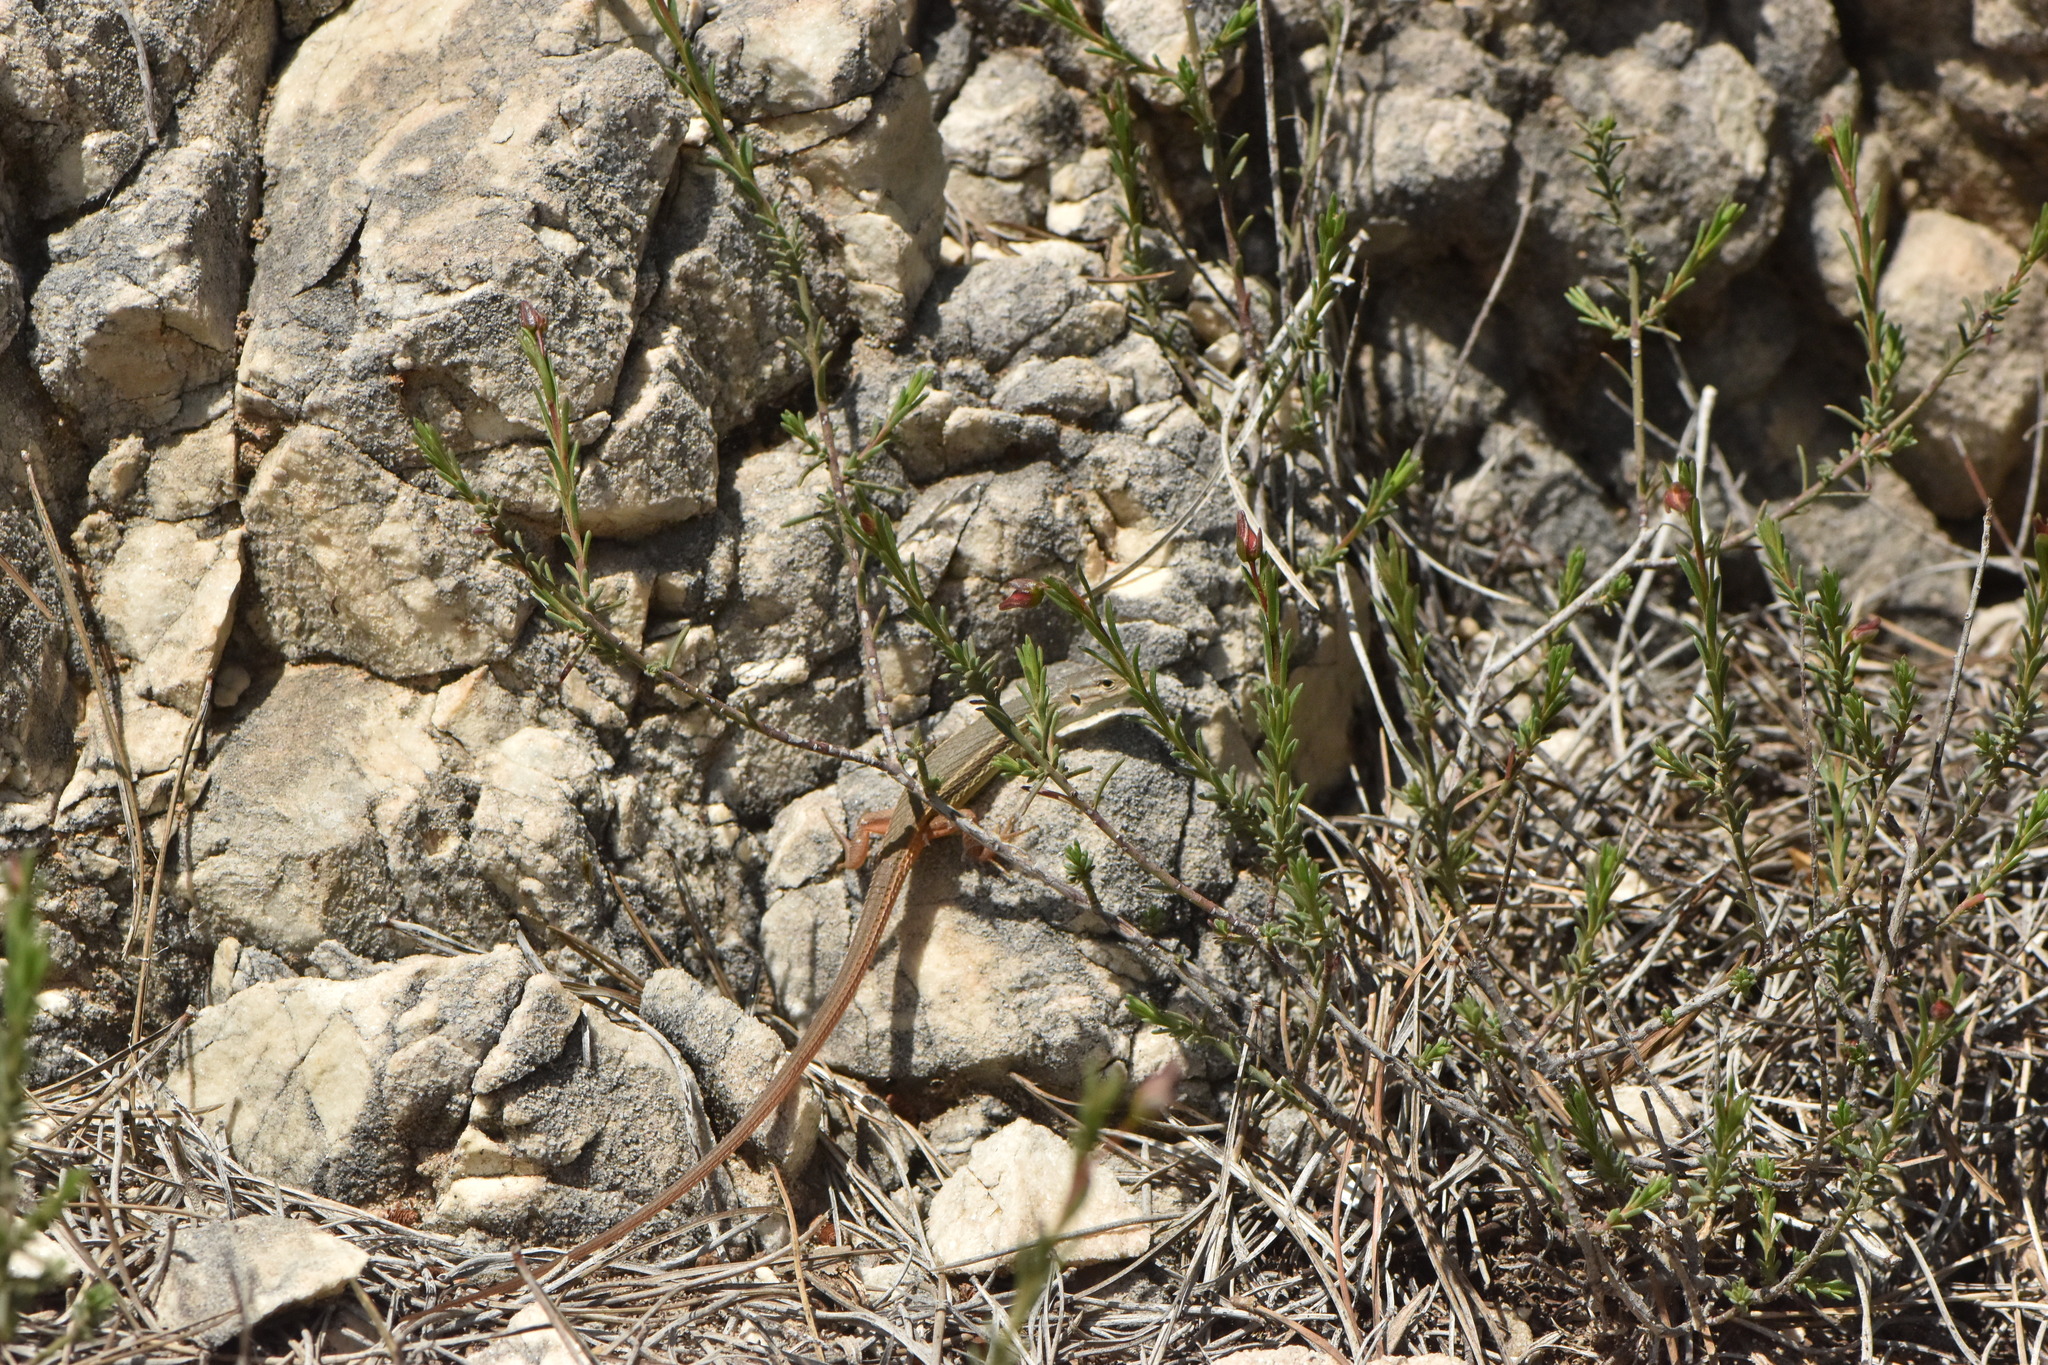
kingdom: Animalia
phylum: Chordata
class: Squamata
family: Lacertidae
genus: Psammodromus
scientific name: Psammodromus algirus
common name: Algerian psammodromus
